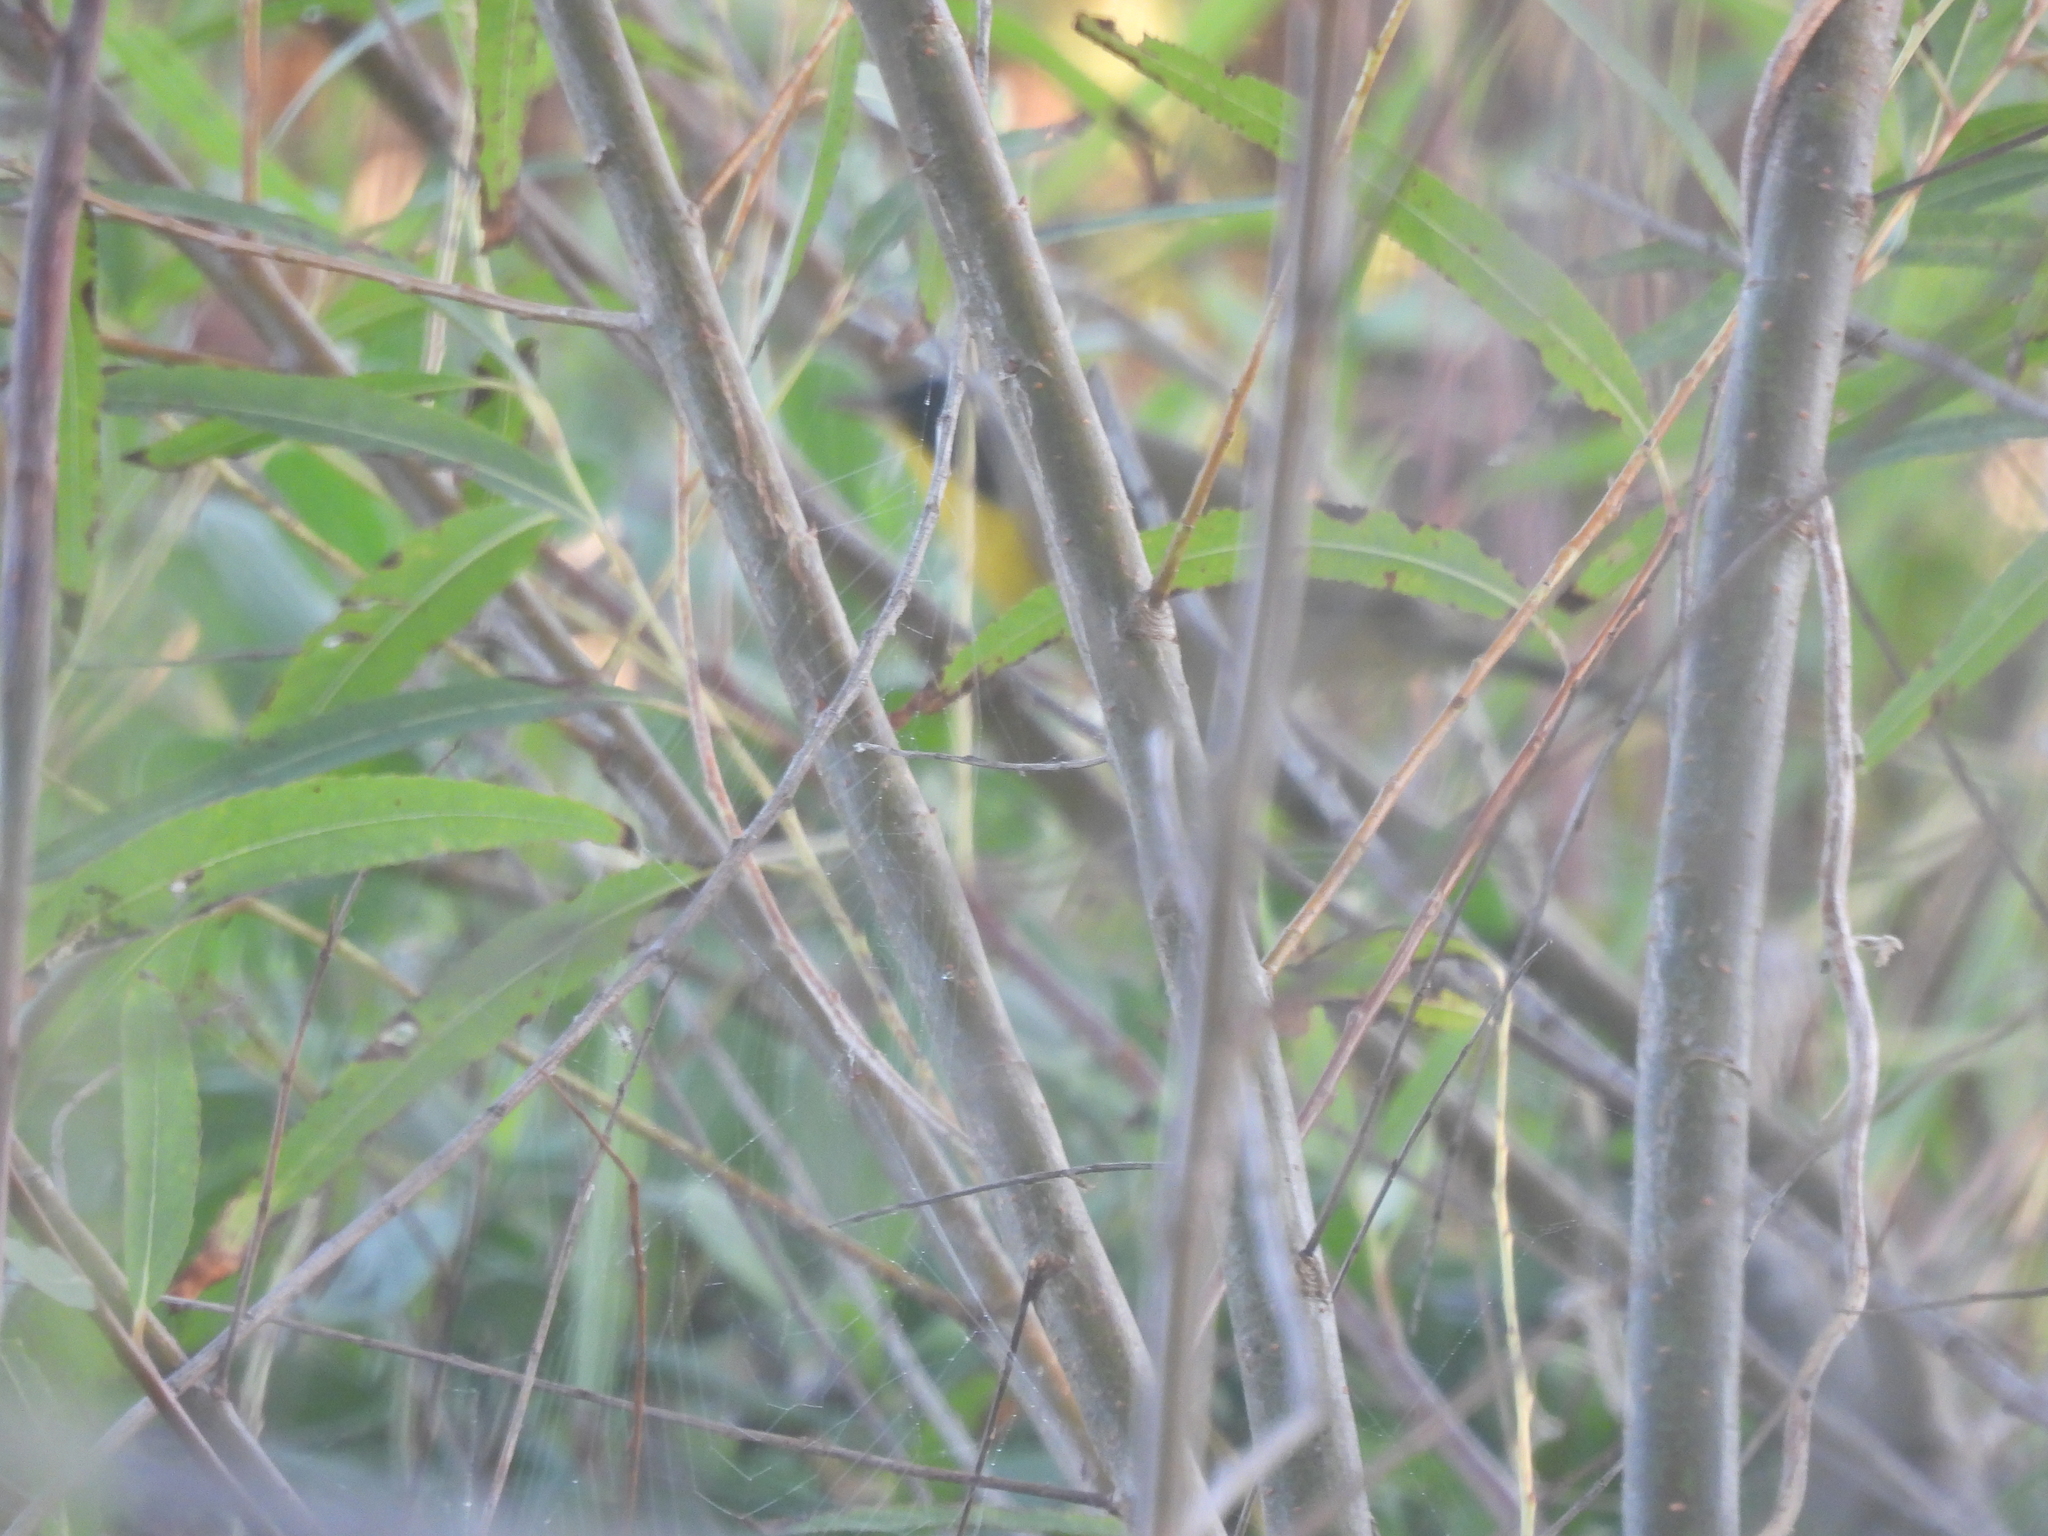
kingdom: Animalia
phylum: Chordata
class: Aves
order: Passeriformes
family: Parulidae
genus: Geothlypis
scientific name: Geothlypis trichas
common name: Common yellowthroat
